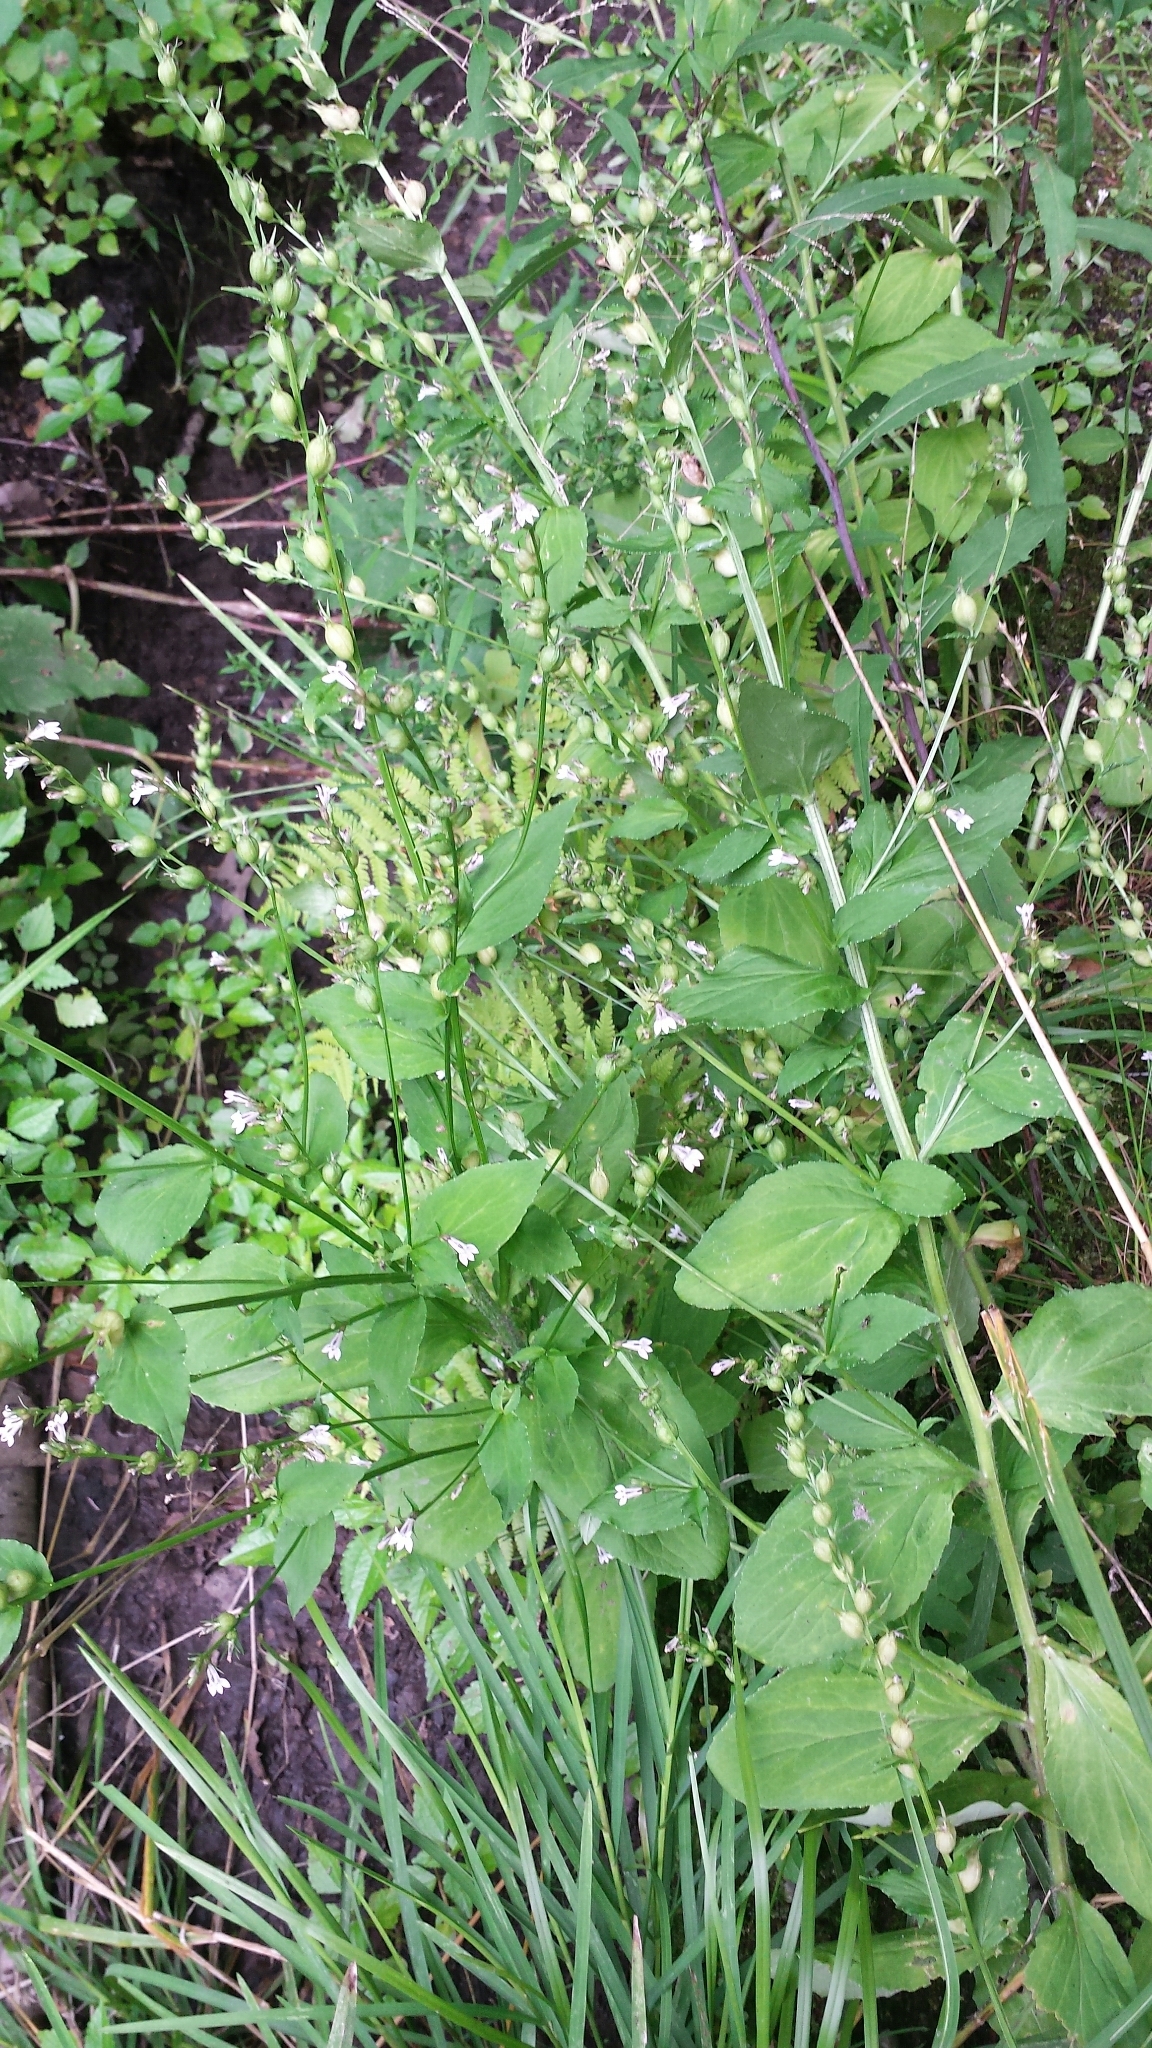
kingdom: Plantae
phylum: Tracheophyta
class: Magnoliopsida
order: Asterales
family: Campanulaceae
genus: Lobelia
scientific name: Lobelia inflata
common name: Indian tobacco
